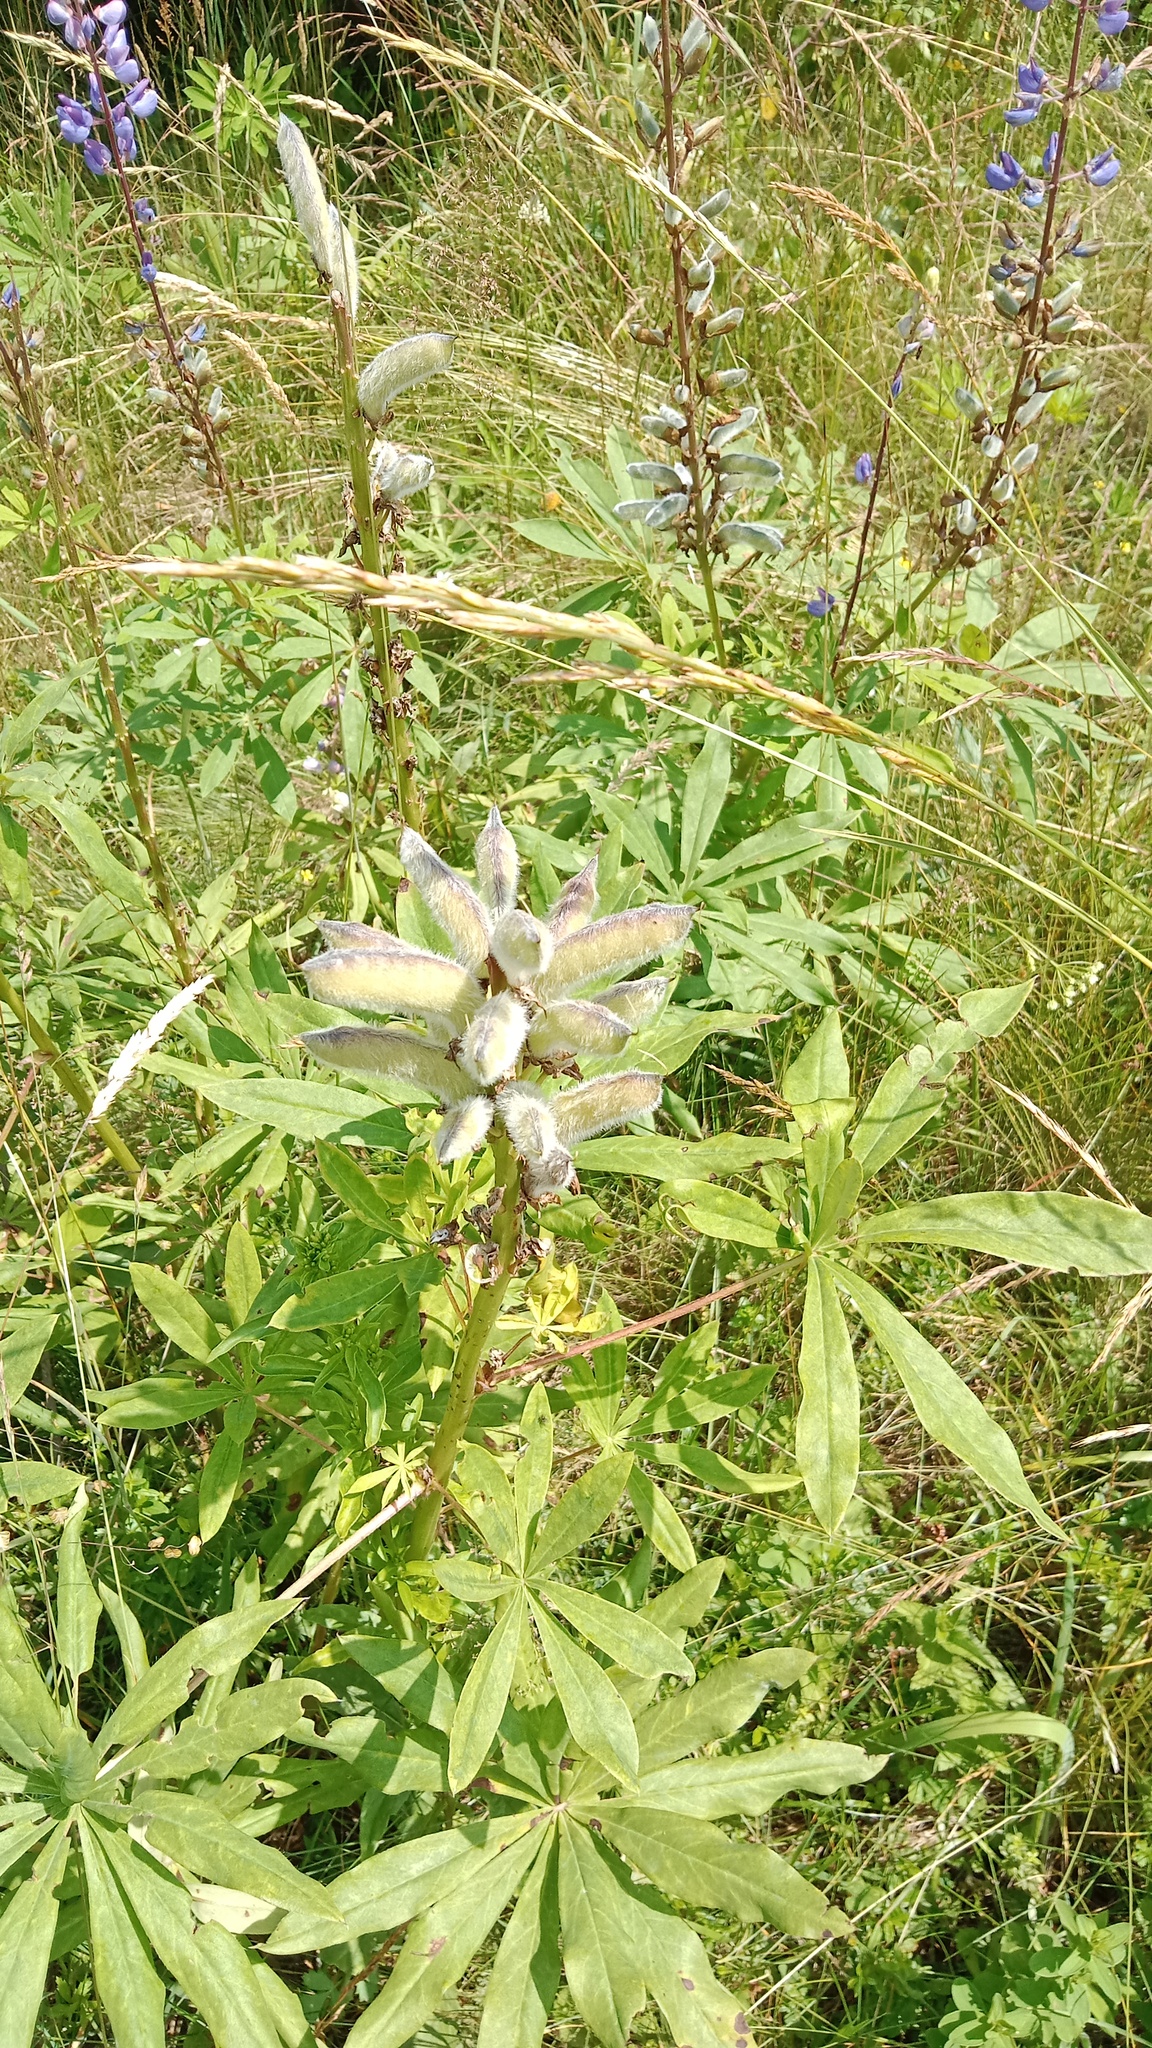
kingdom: Plantae
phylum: Tracheophyta
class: Magnoliopsida
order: Fabales
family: Fabaceae
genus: Lupinus
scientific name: Lupinus polyphyllus
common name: Garden lupin
